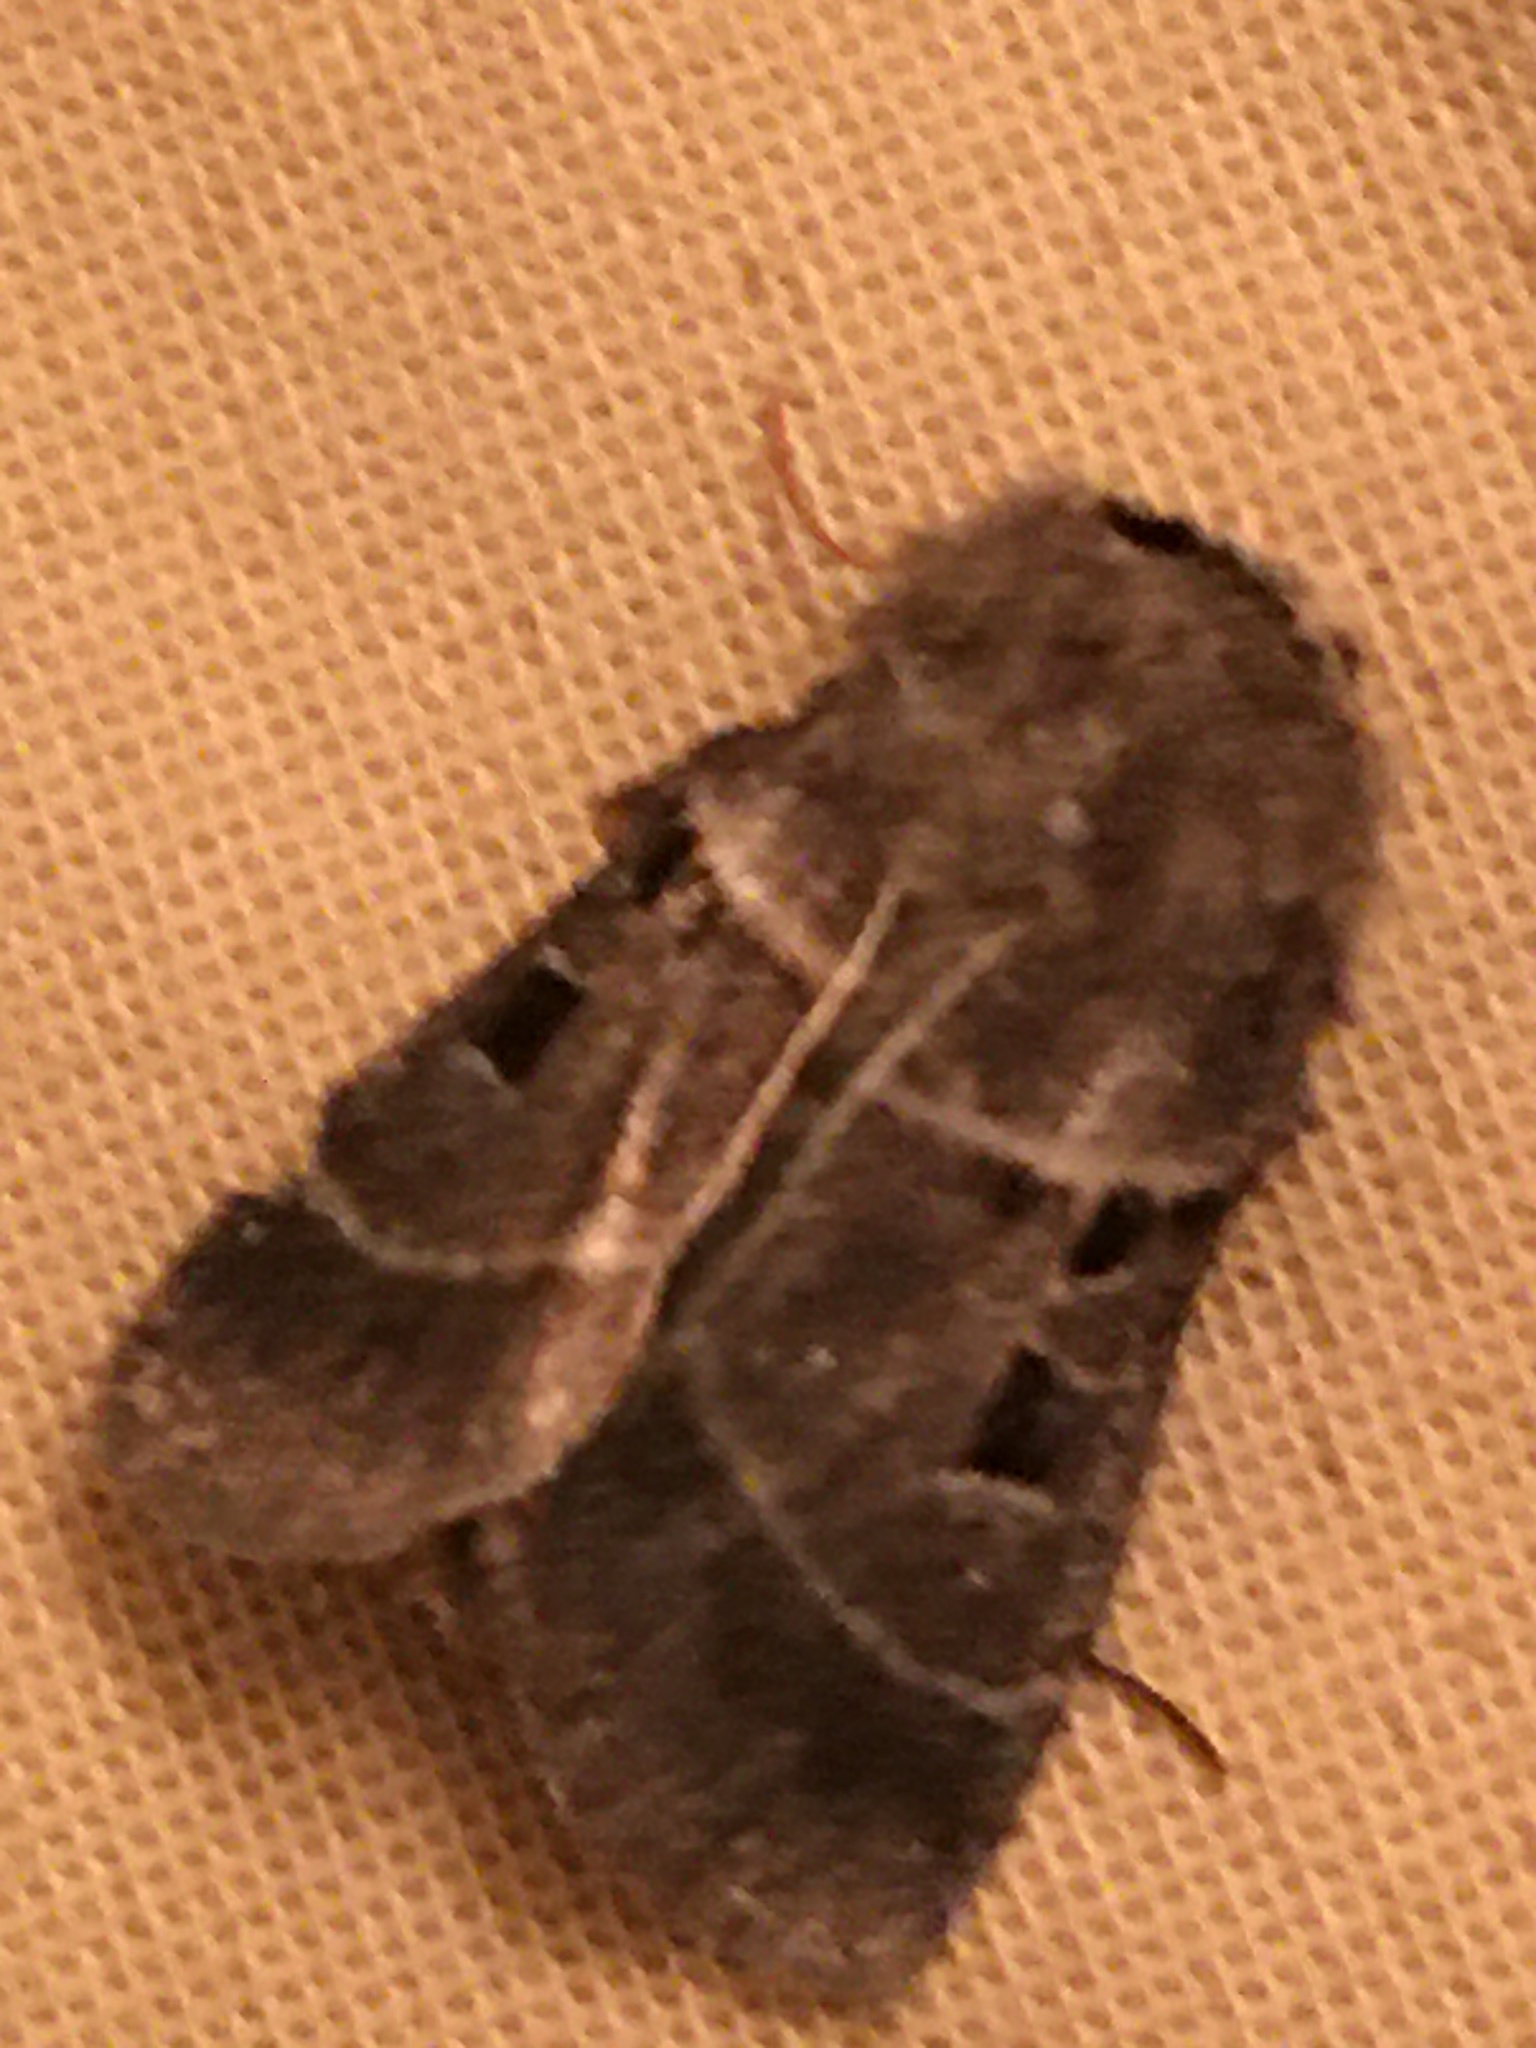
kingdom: Animalia
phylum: Arthropoda
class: Insecta
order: Lepidoptera
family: Noctuidae
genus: Agnorisma
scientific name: Agnorisma bollii
